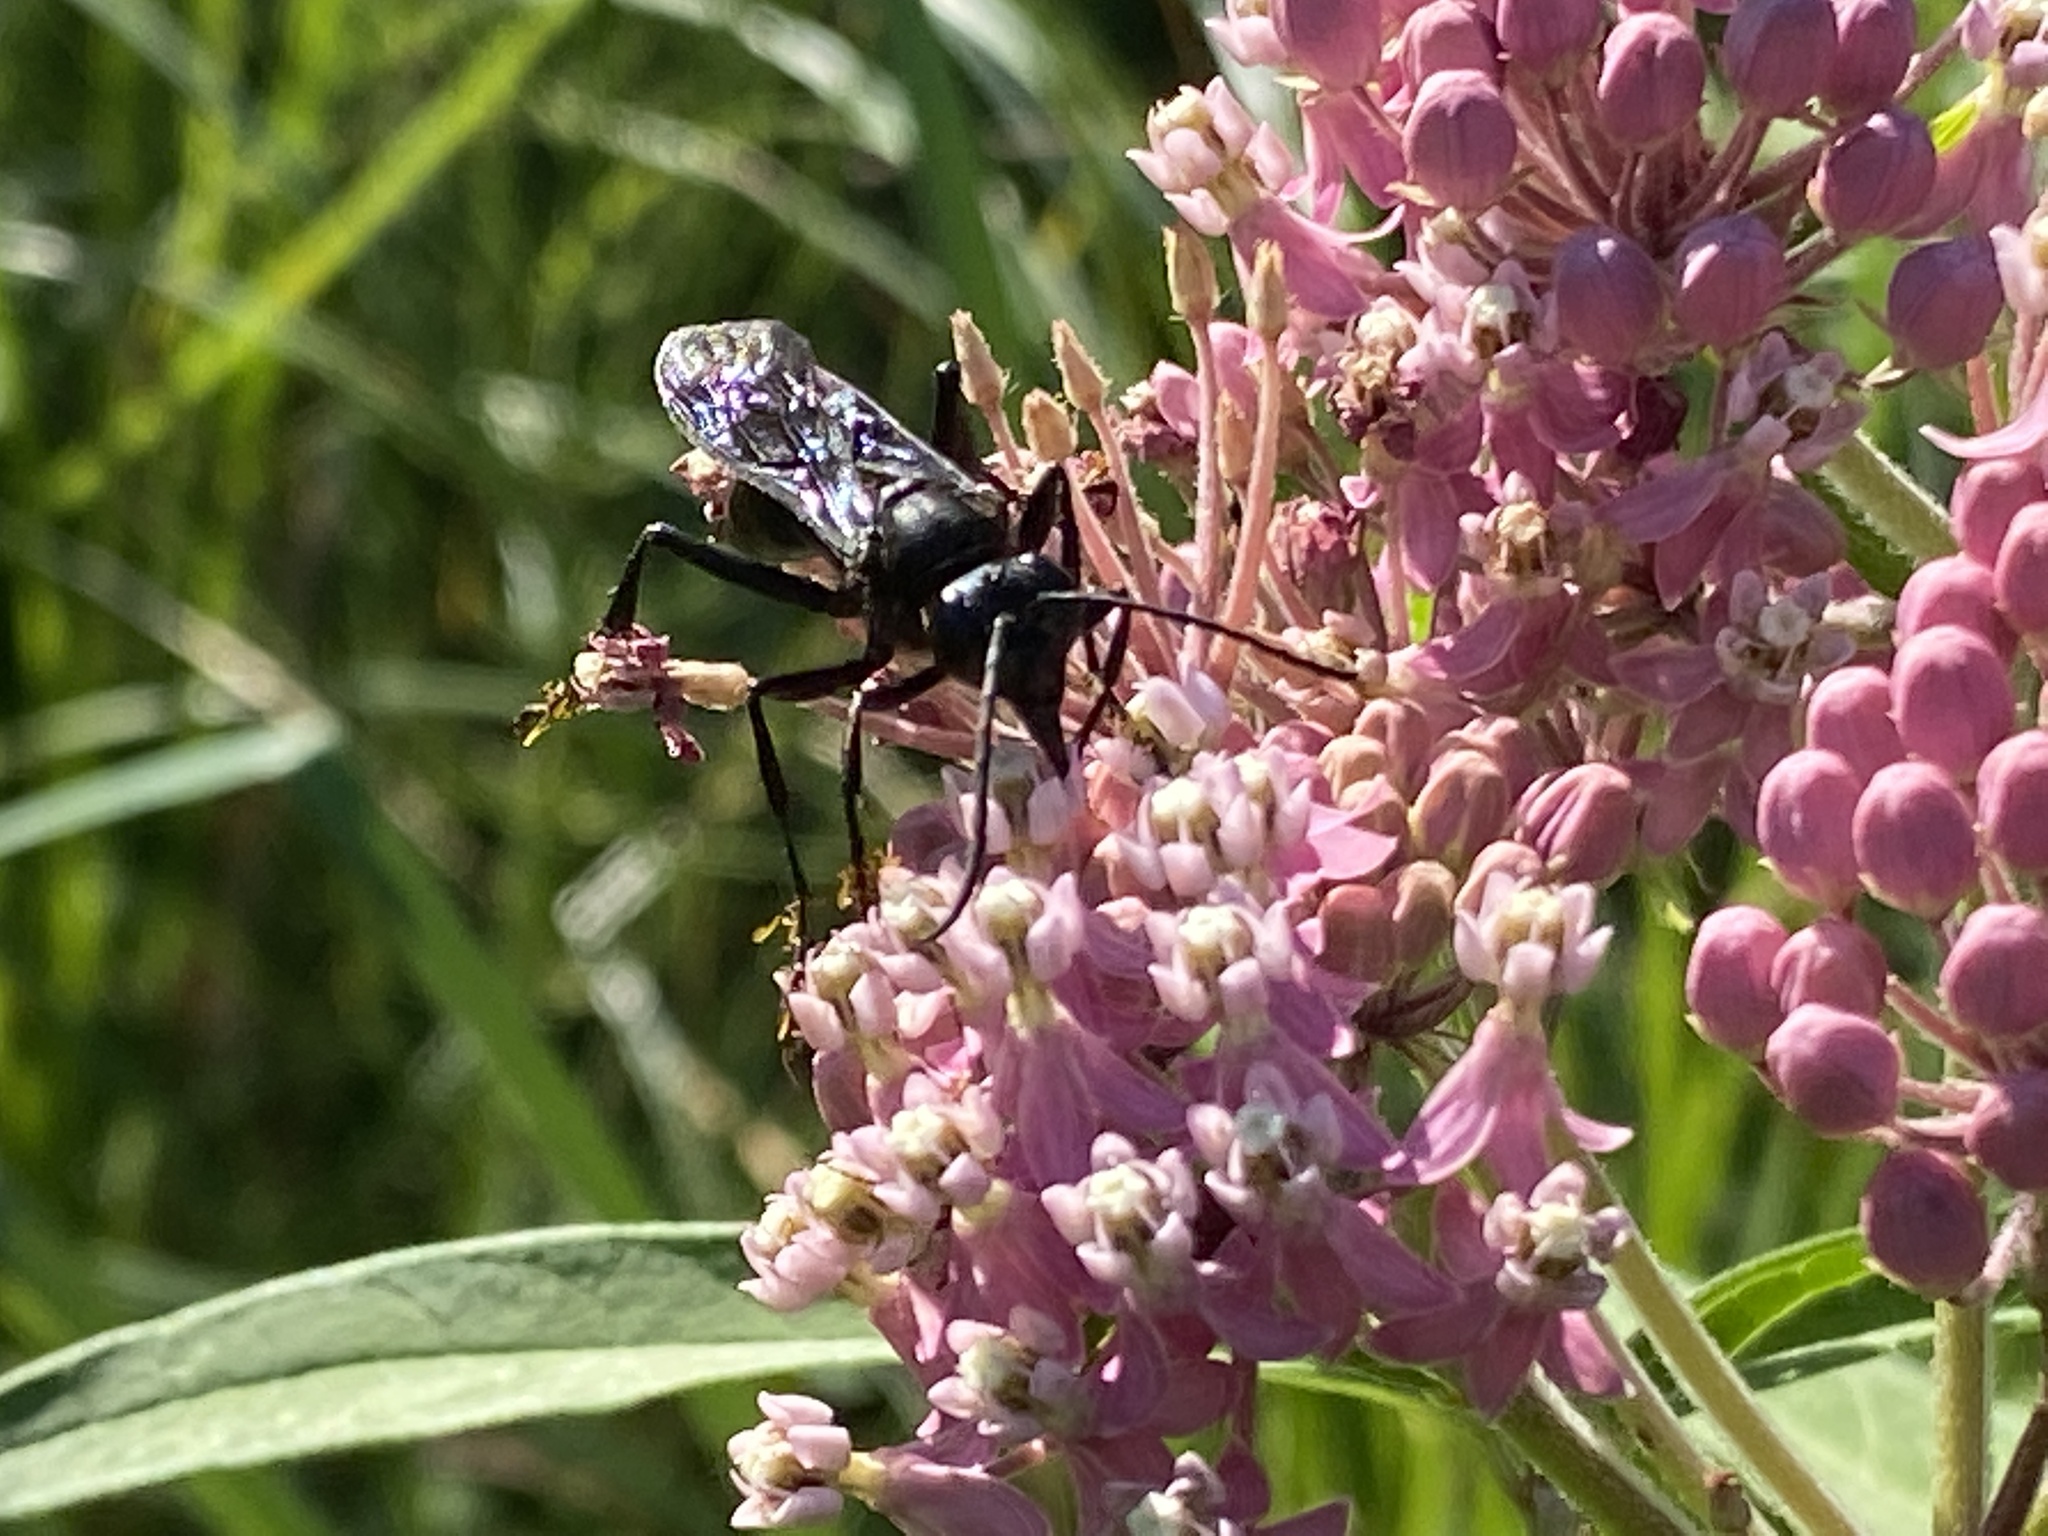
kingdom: Animalia
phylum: Arthropoda
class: Insecta
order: Hymenoptera
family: Sphecidae
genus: Sphex
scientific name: Sphex pensylvanicus
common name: Great black digger wasp
